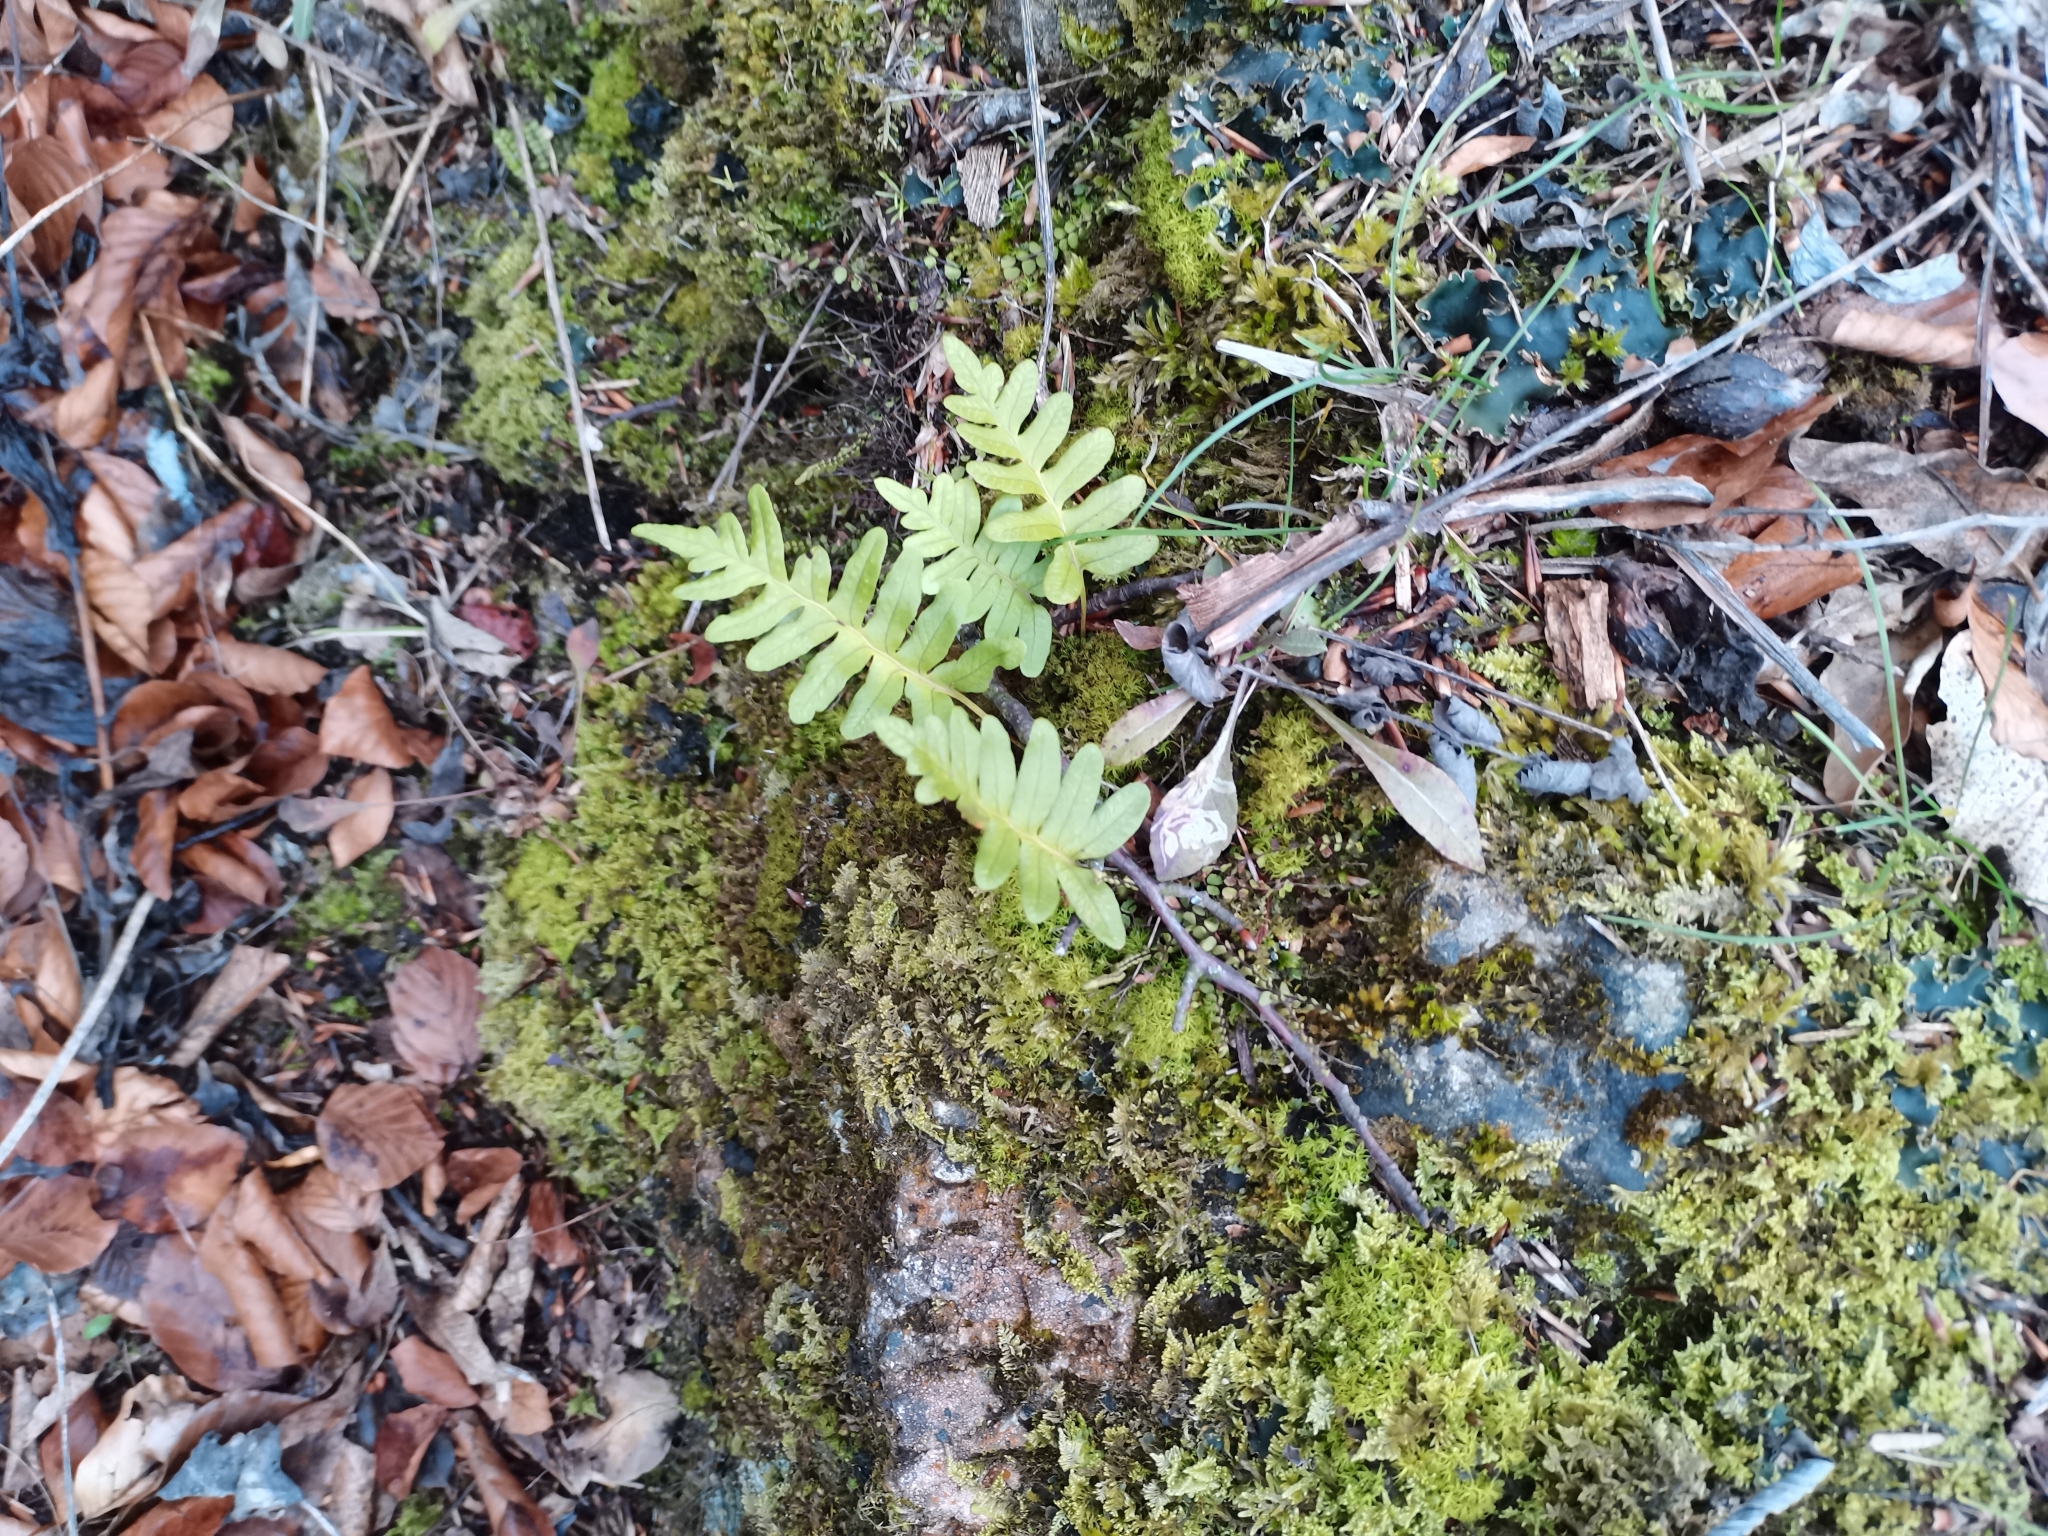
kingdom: Plantae
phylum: Tracheophyta
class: Polypodiopsida
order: Polypodiales
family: Polypodiaceae
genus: Polypodium
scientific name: Polypodium vulgare
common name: Common polypody
